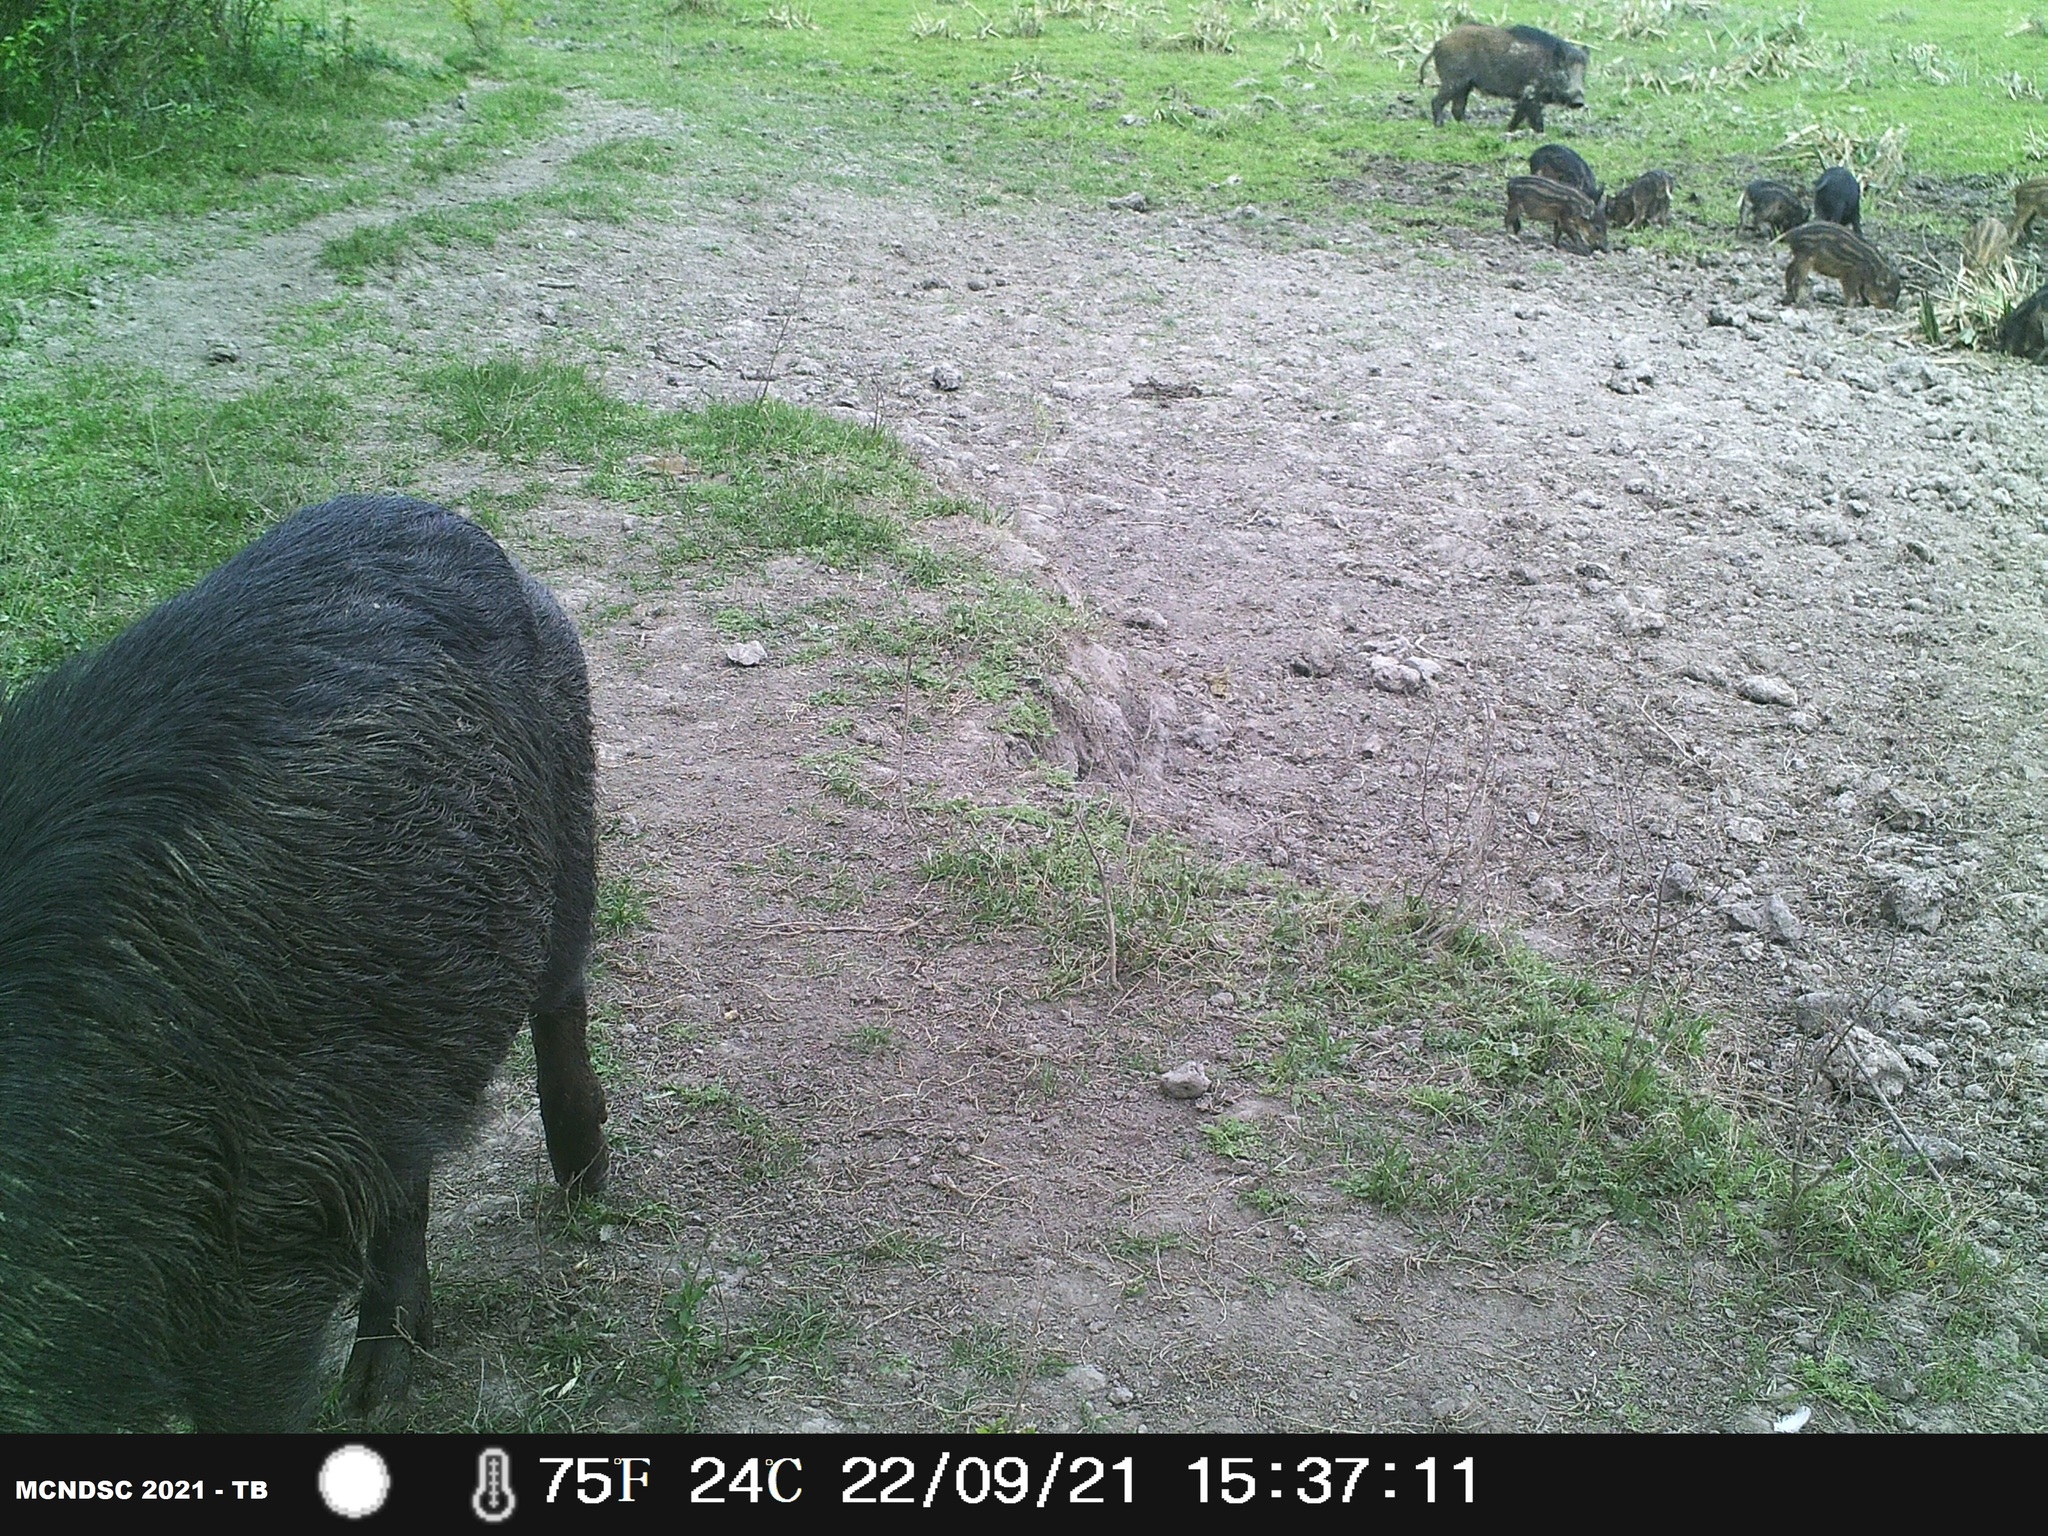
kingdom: Animalia
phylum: Chordata
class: Mammalia
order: Artiodactyla
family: Suidae
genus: Sus
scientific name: Sus scrofa
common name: Wild boar
